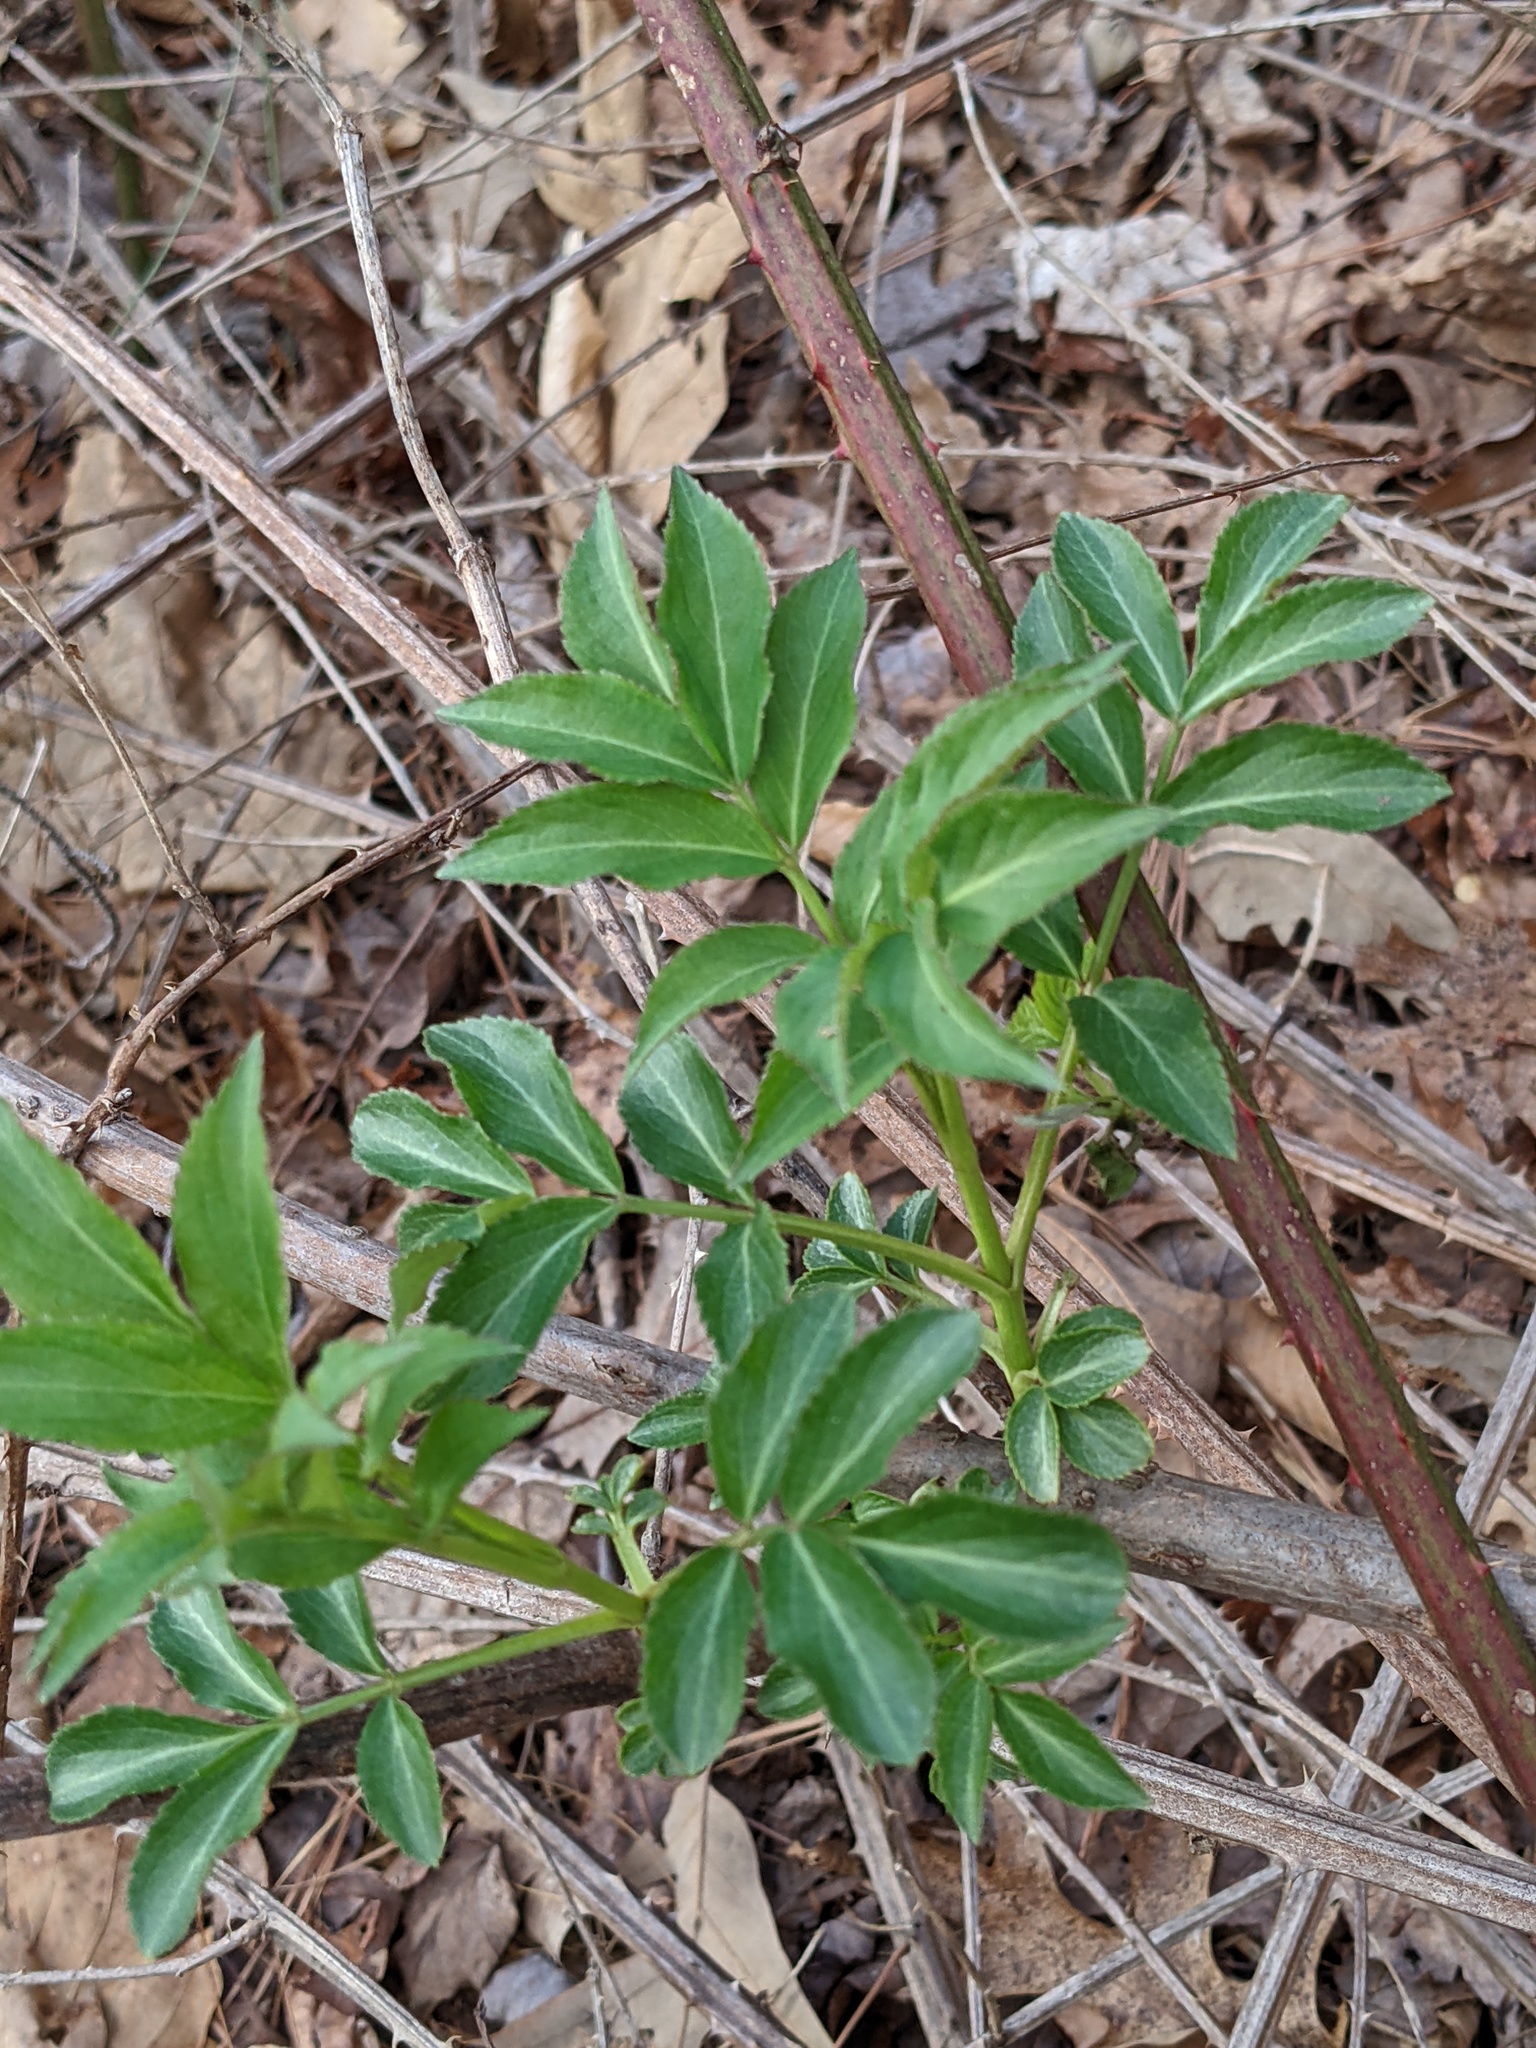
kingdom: Plantae
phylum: Tracheophyta
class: Magnoliopsida
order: Dipsacales
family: Viburnaceae
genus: Sambucus
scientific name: Sambucus canadensis
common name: American elder
